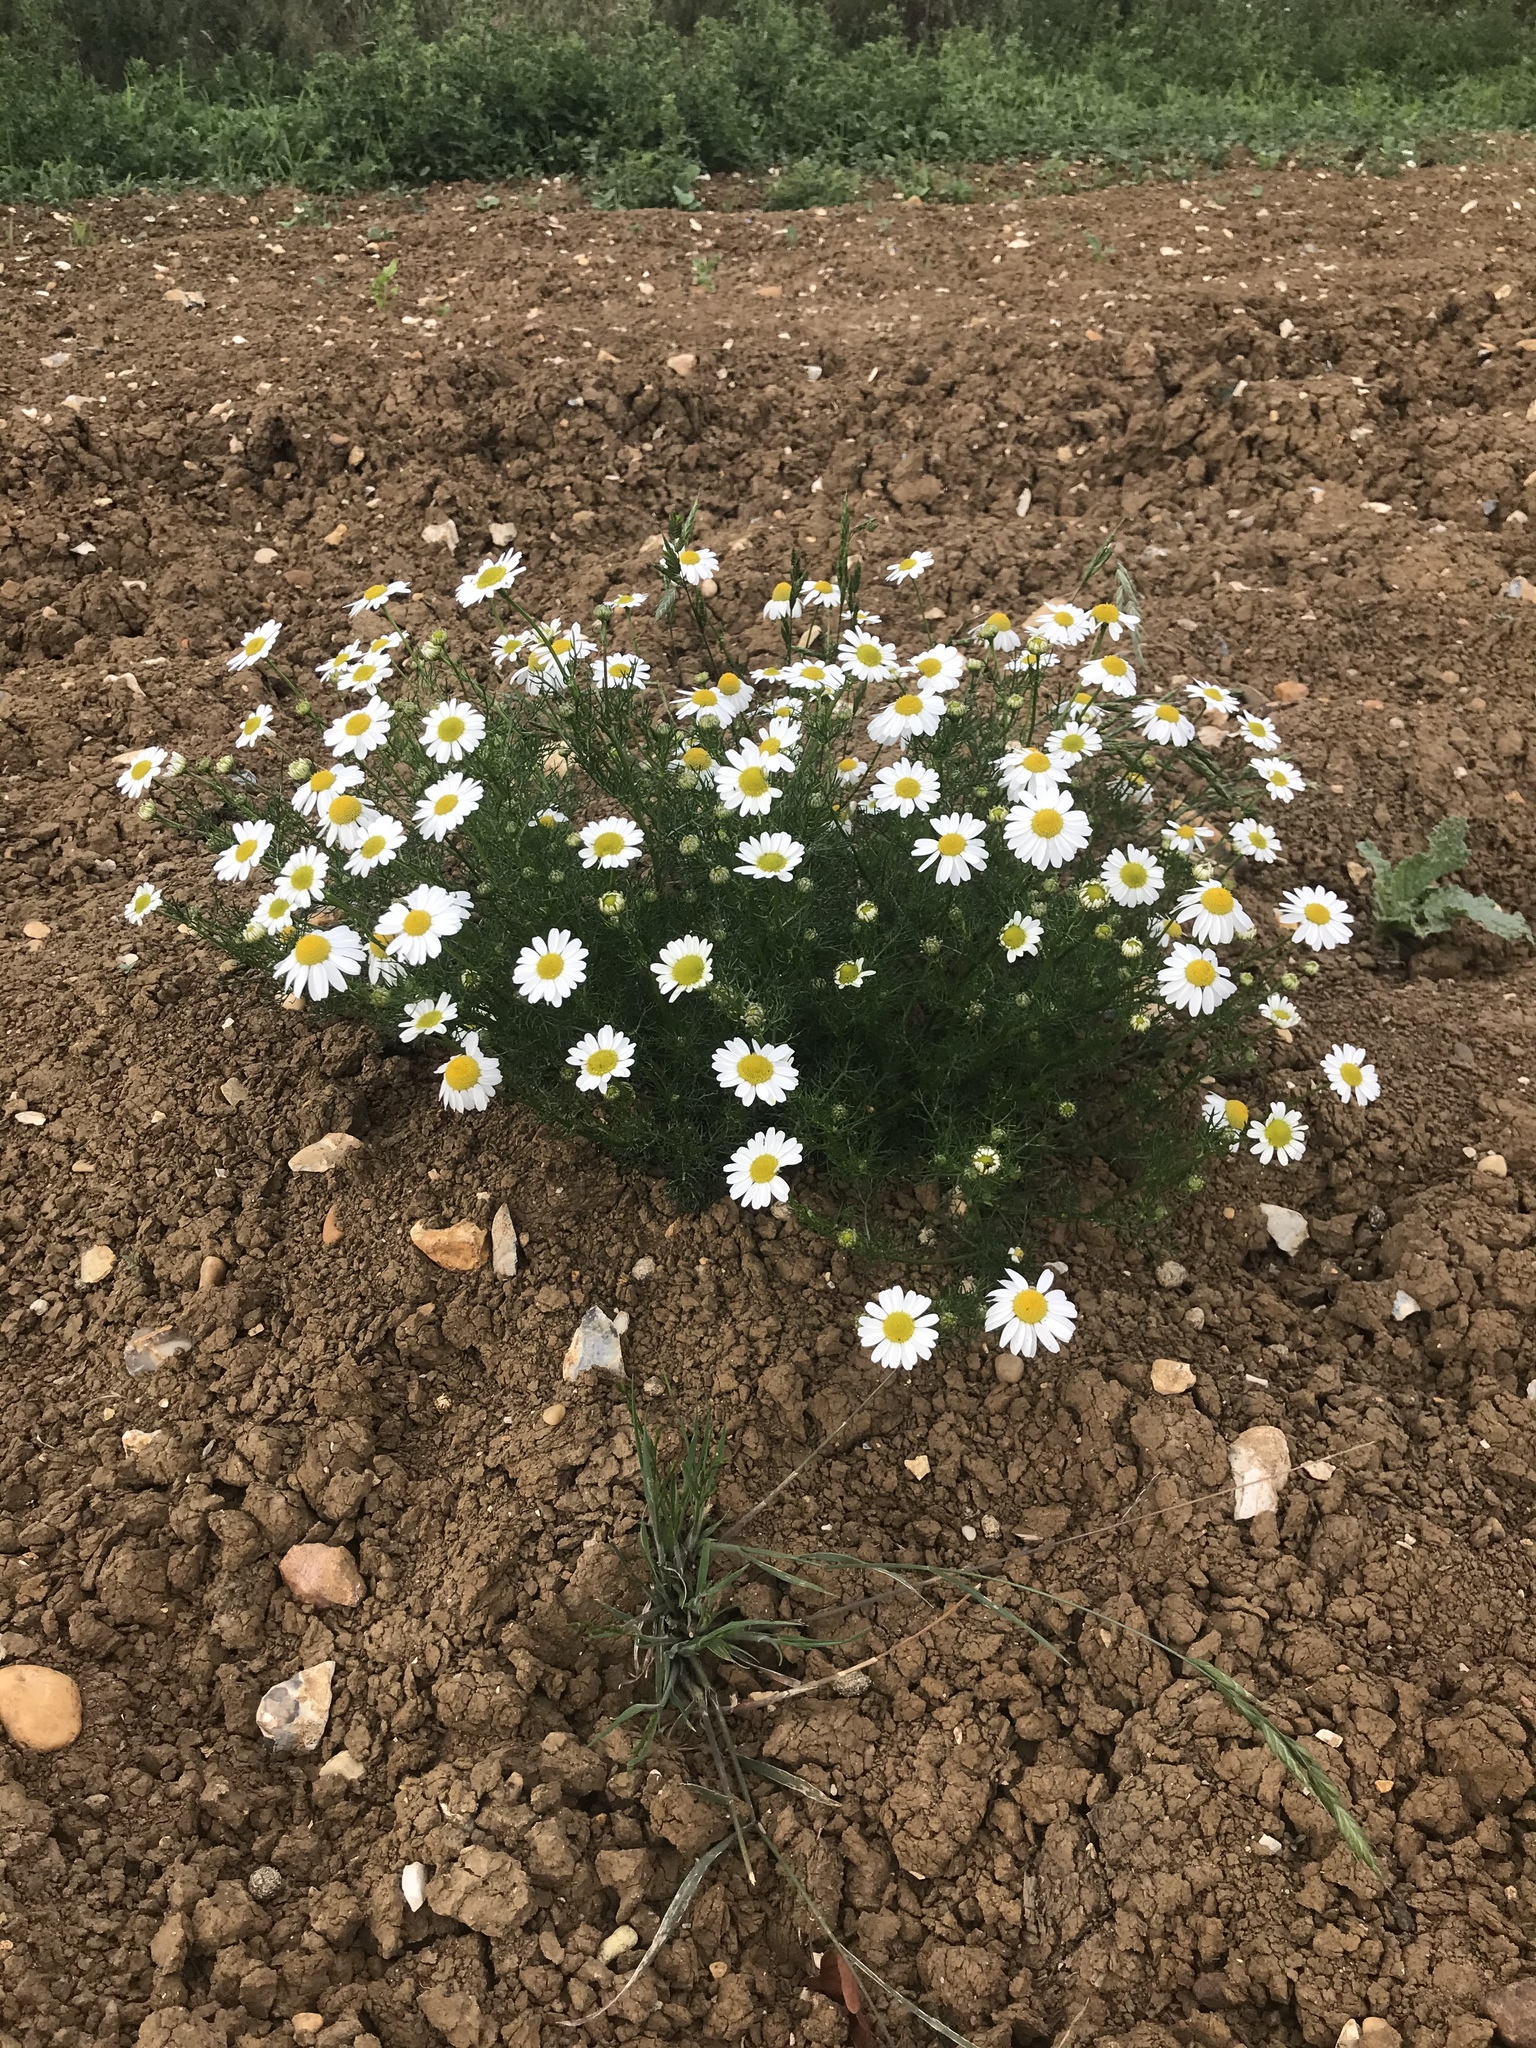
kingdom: Plantae
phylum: Tracheophyta
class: Magnoliopsida
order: Asterales
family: Asteraceae
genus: Tripleurospermum
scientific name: Tripleurospermum inodorum
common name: Scentless mayweed
